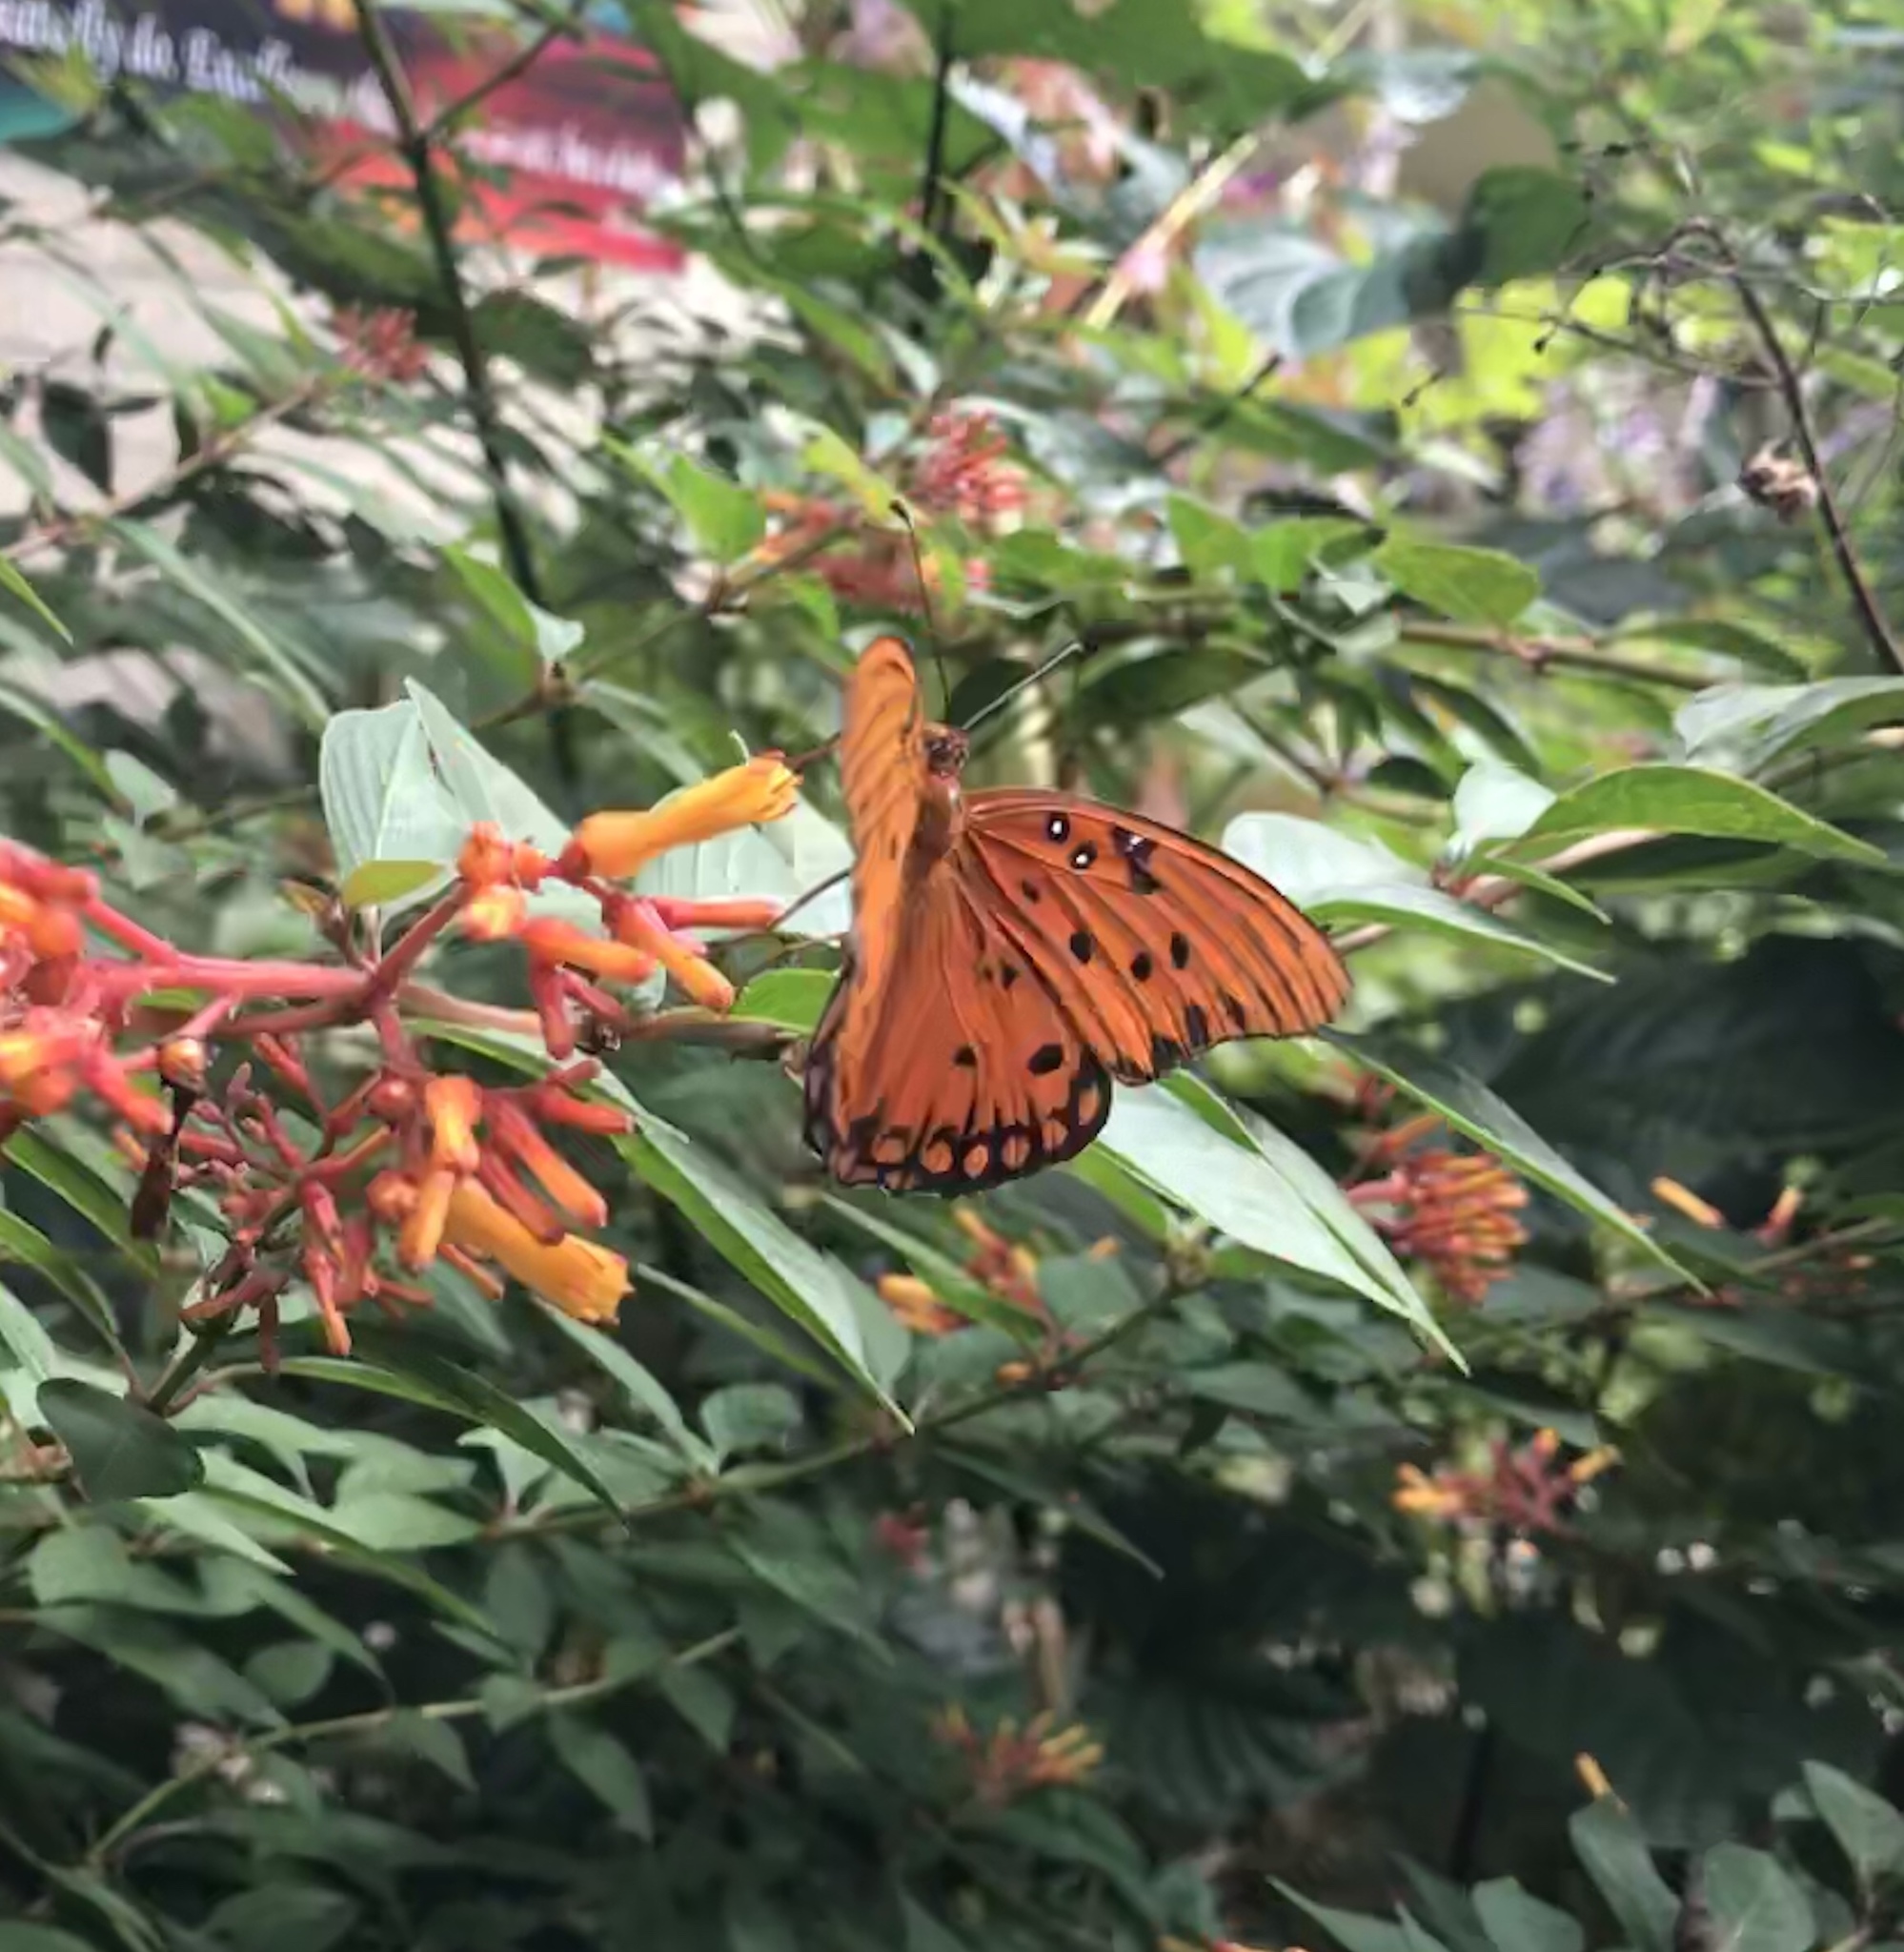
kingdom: Animalia
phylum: Arthropoda
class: Insecta
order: Lepidoptera
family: Nymphalidae
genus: Dione
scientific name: Dione vanillae
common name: Gulf fritillary
